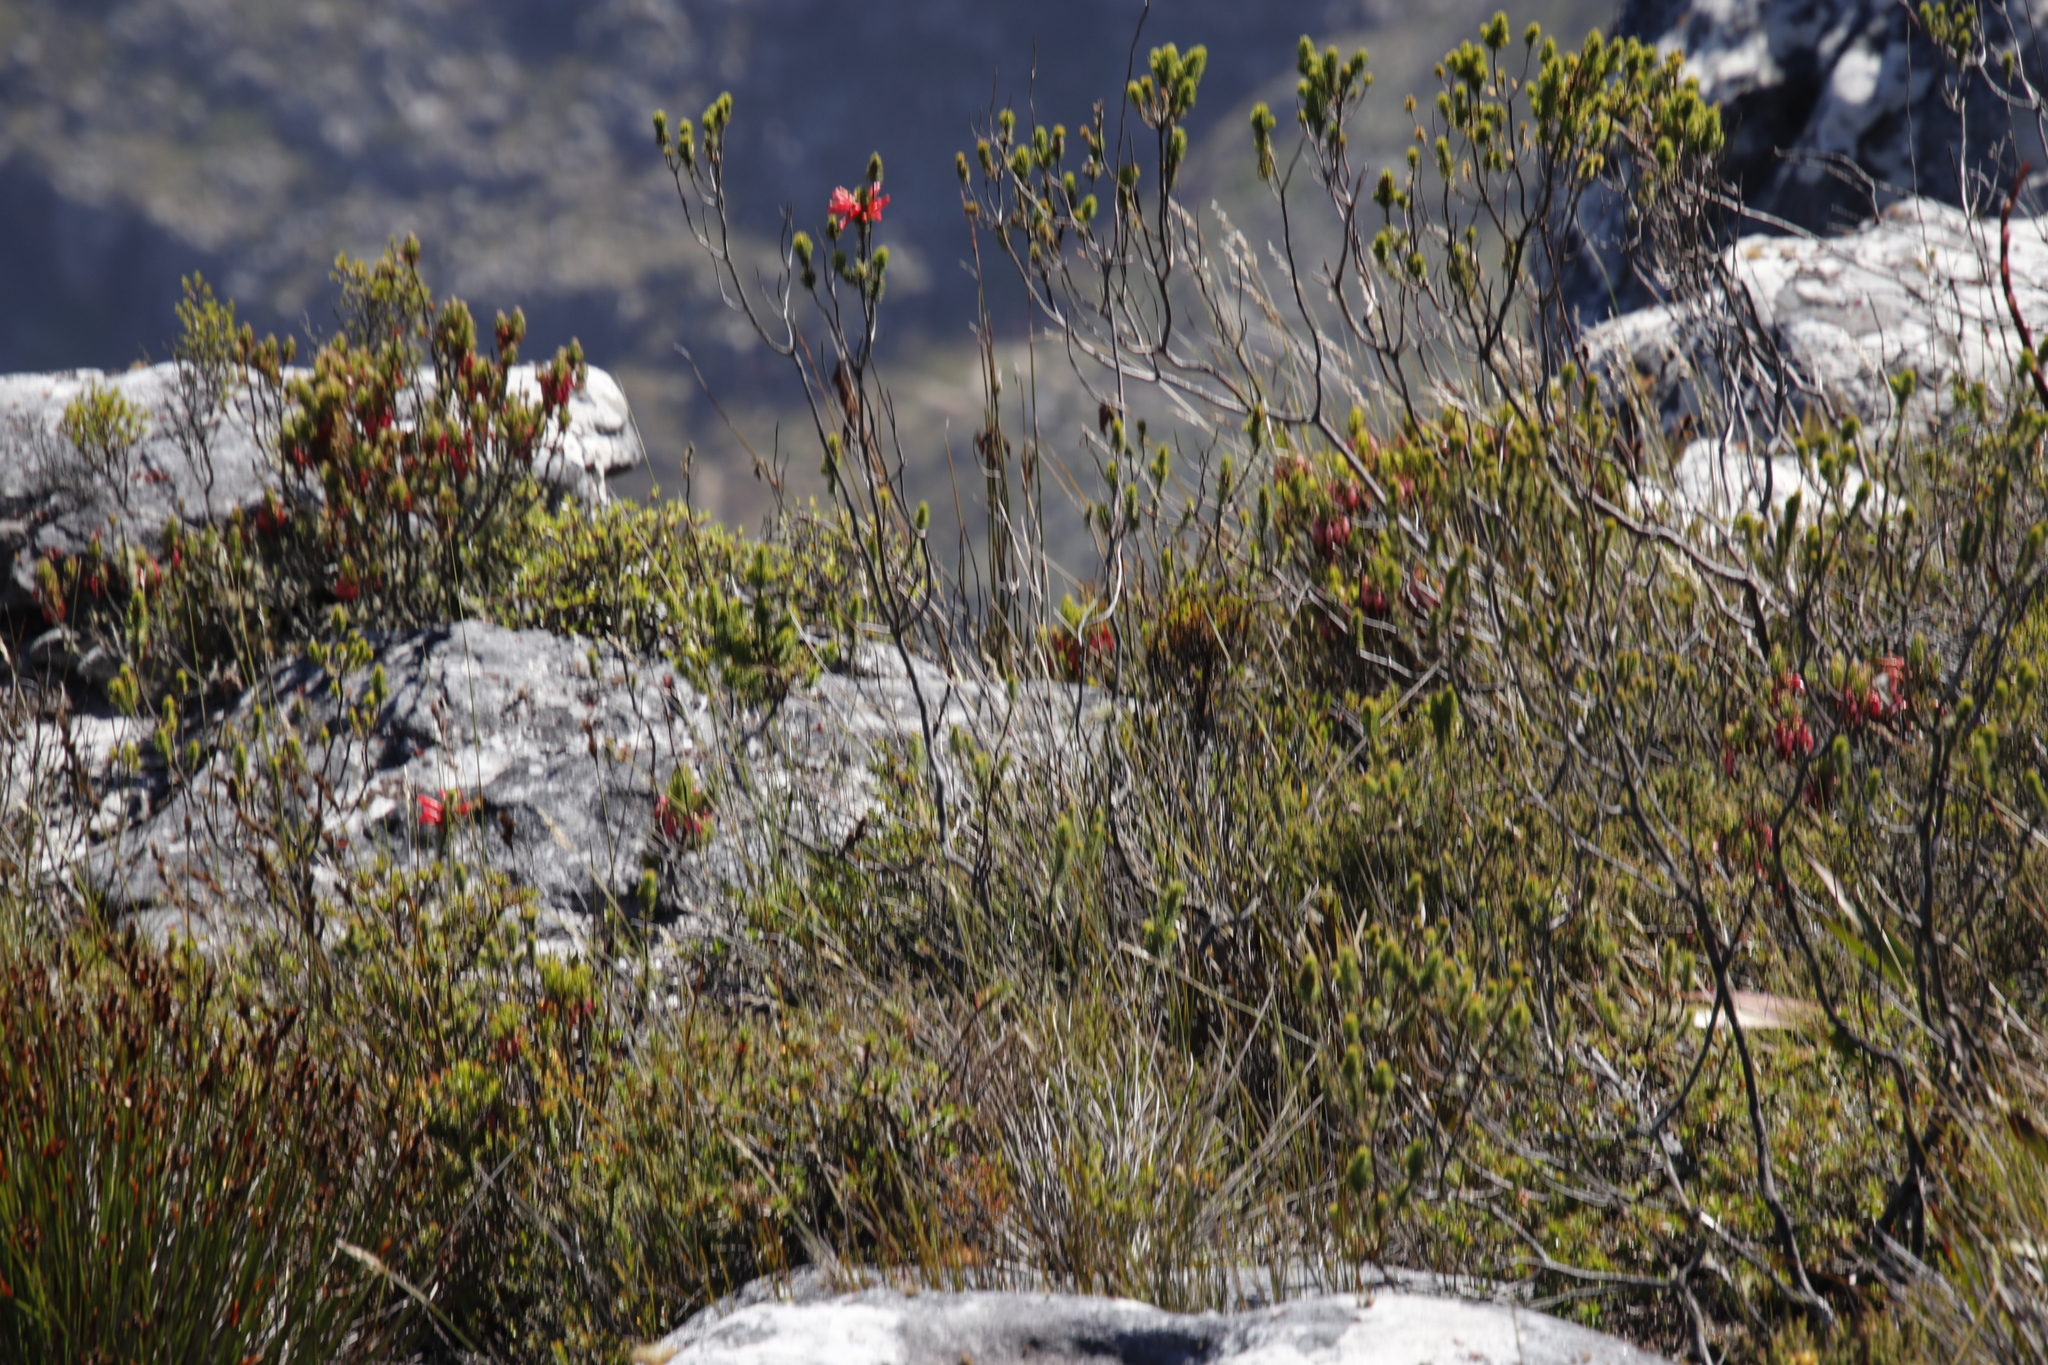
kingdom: Plantae
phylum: Tracheophyta
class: Magnoliopsida
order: Ericales
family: Ericaceae
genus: Erica
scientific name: Erica abietina
